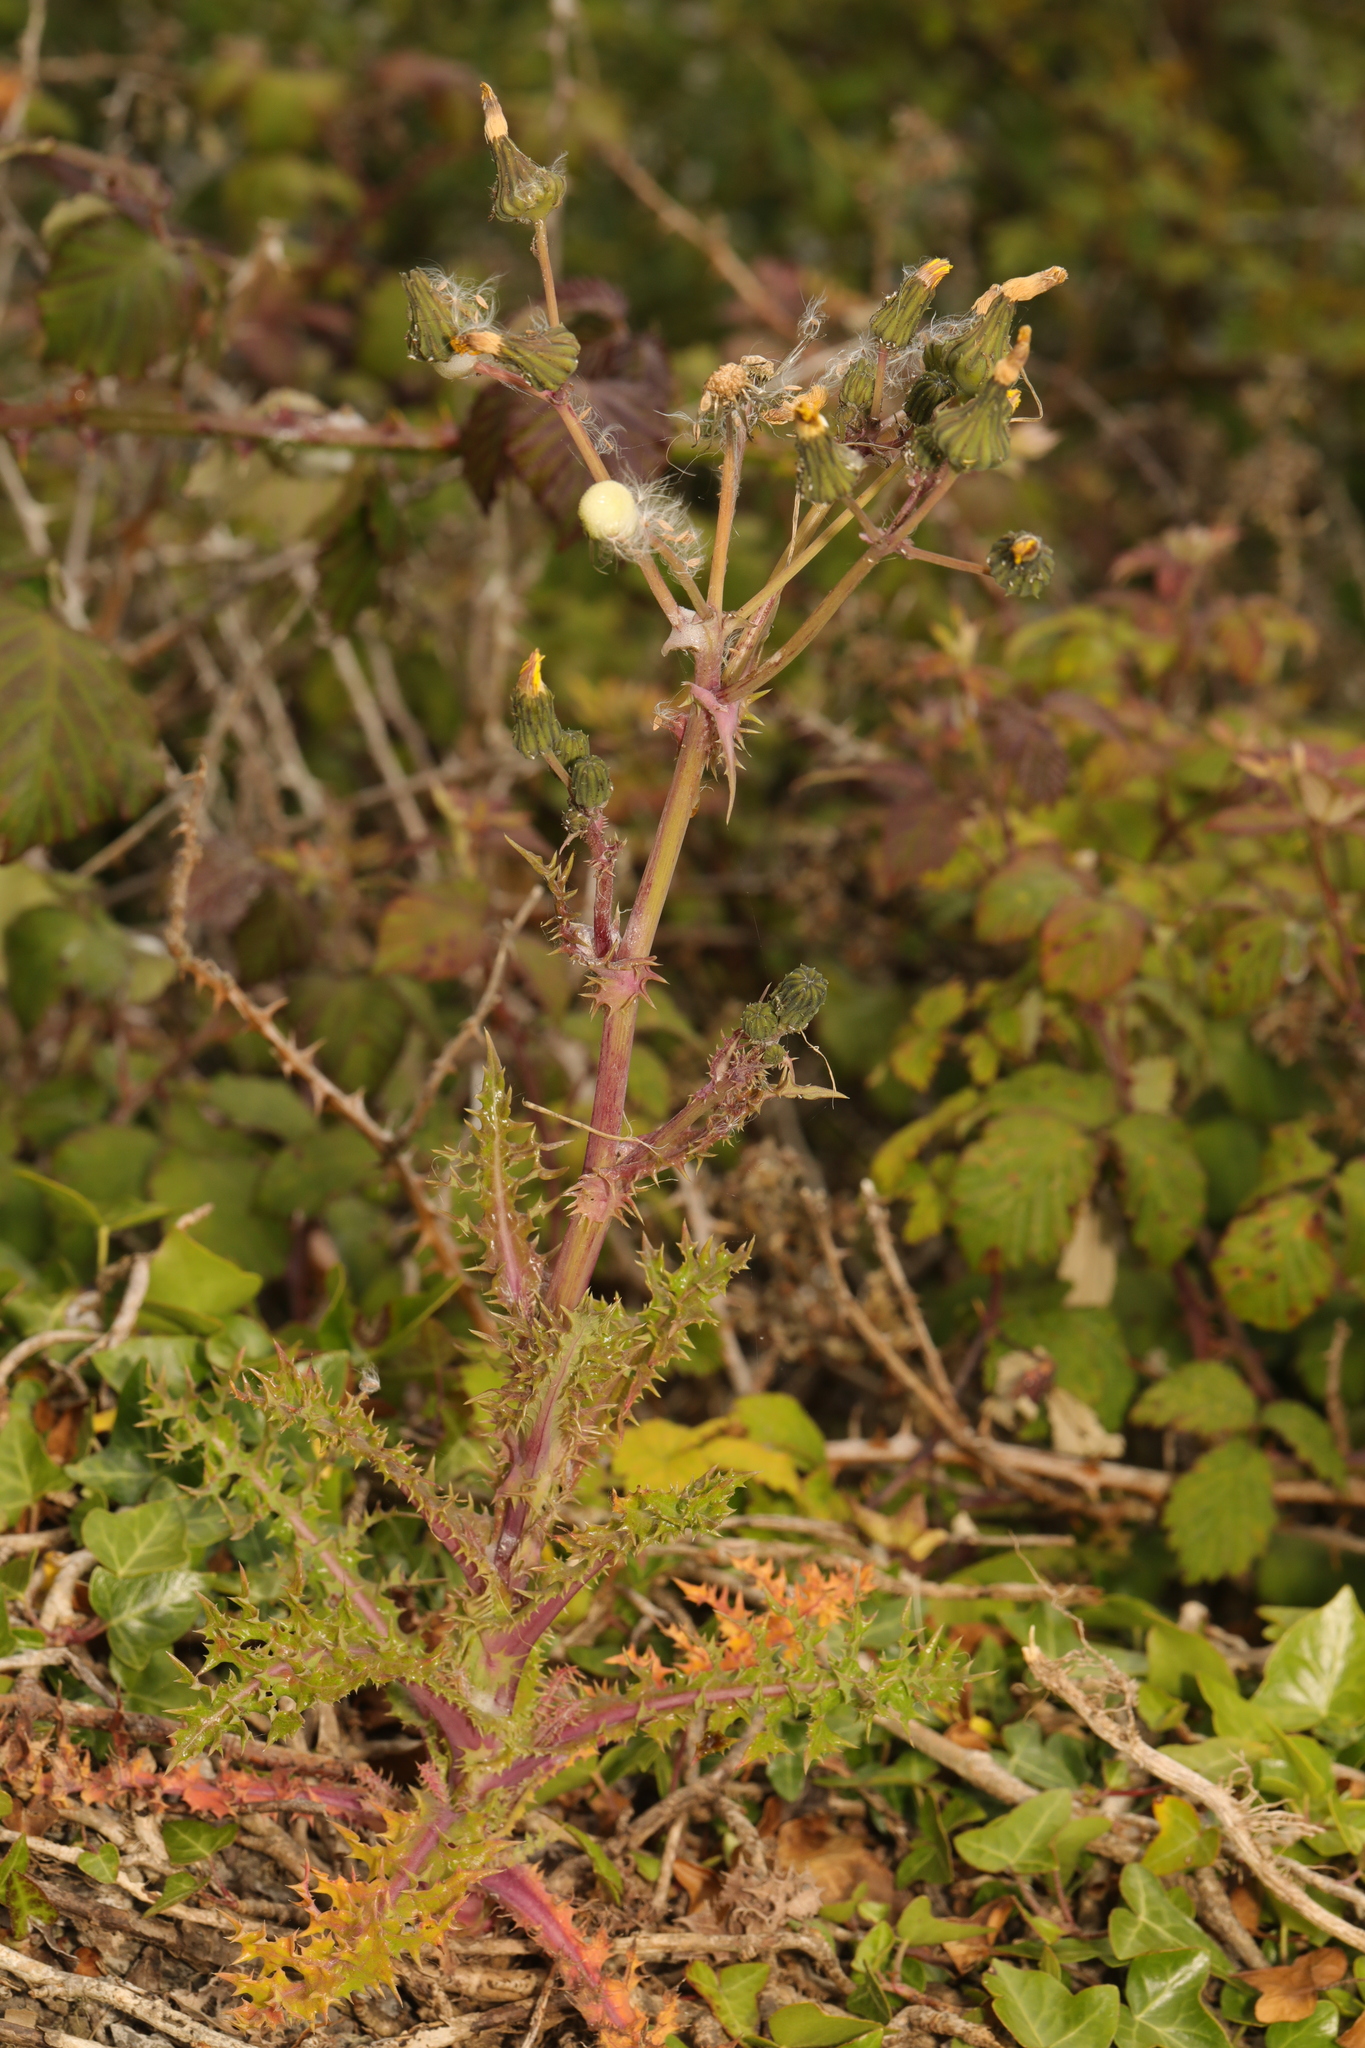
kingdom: Plantae
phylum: Tracheophyta
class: Magnoliopsida
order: Asterales
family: Asteraceae
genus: Sonchus
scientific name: Sonchus asper
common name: Prickly sow-thistle
